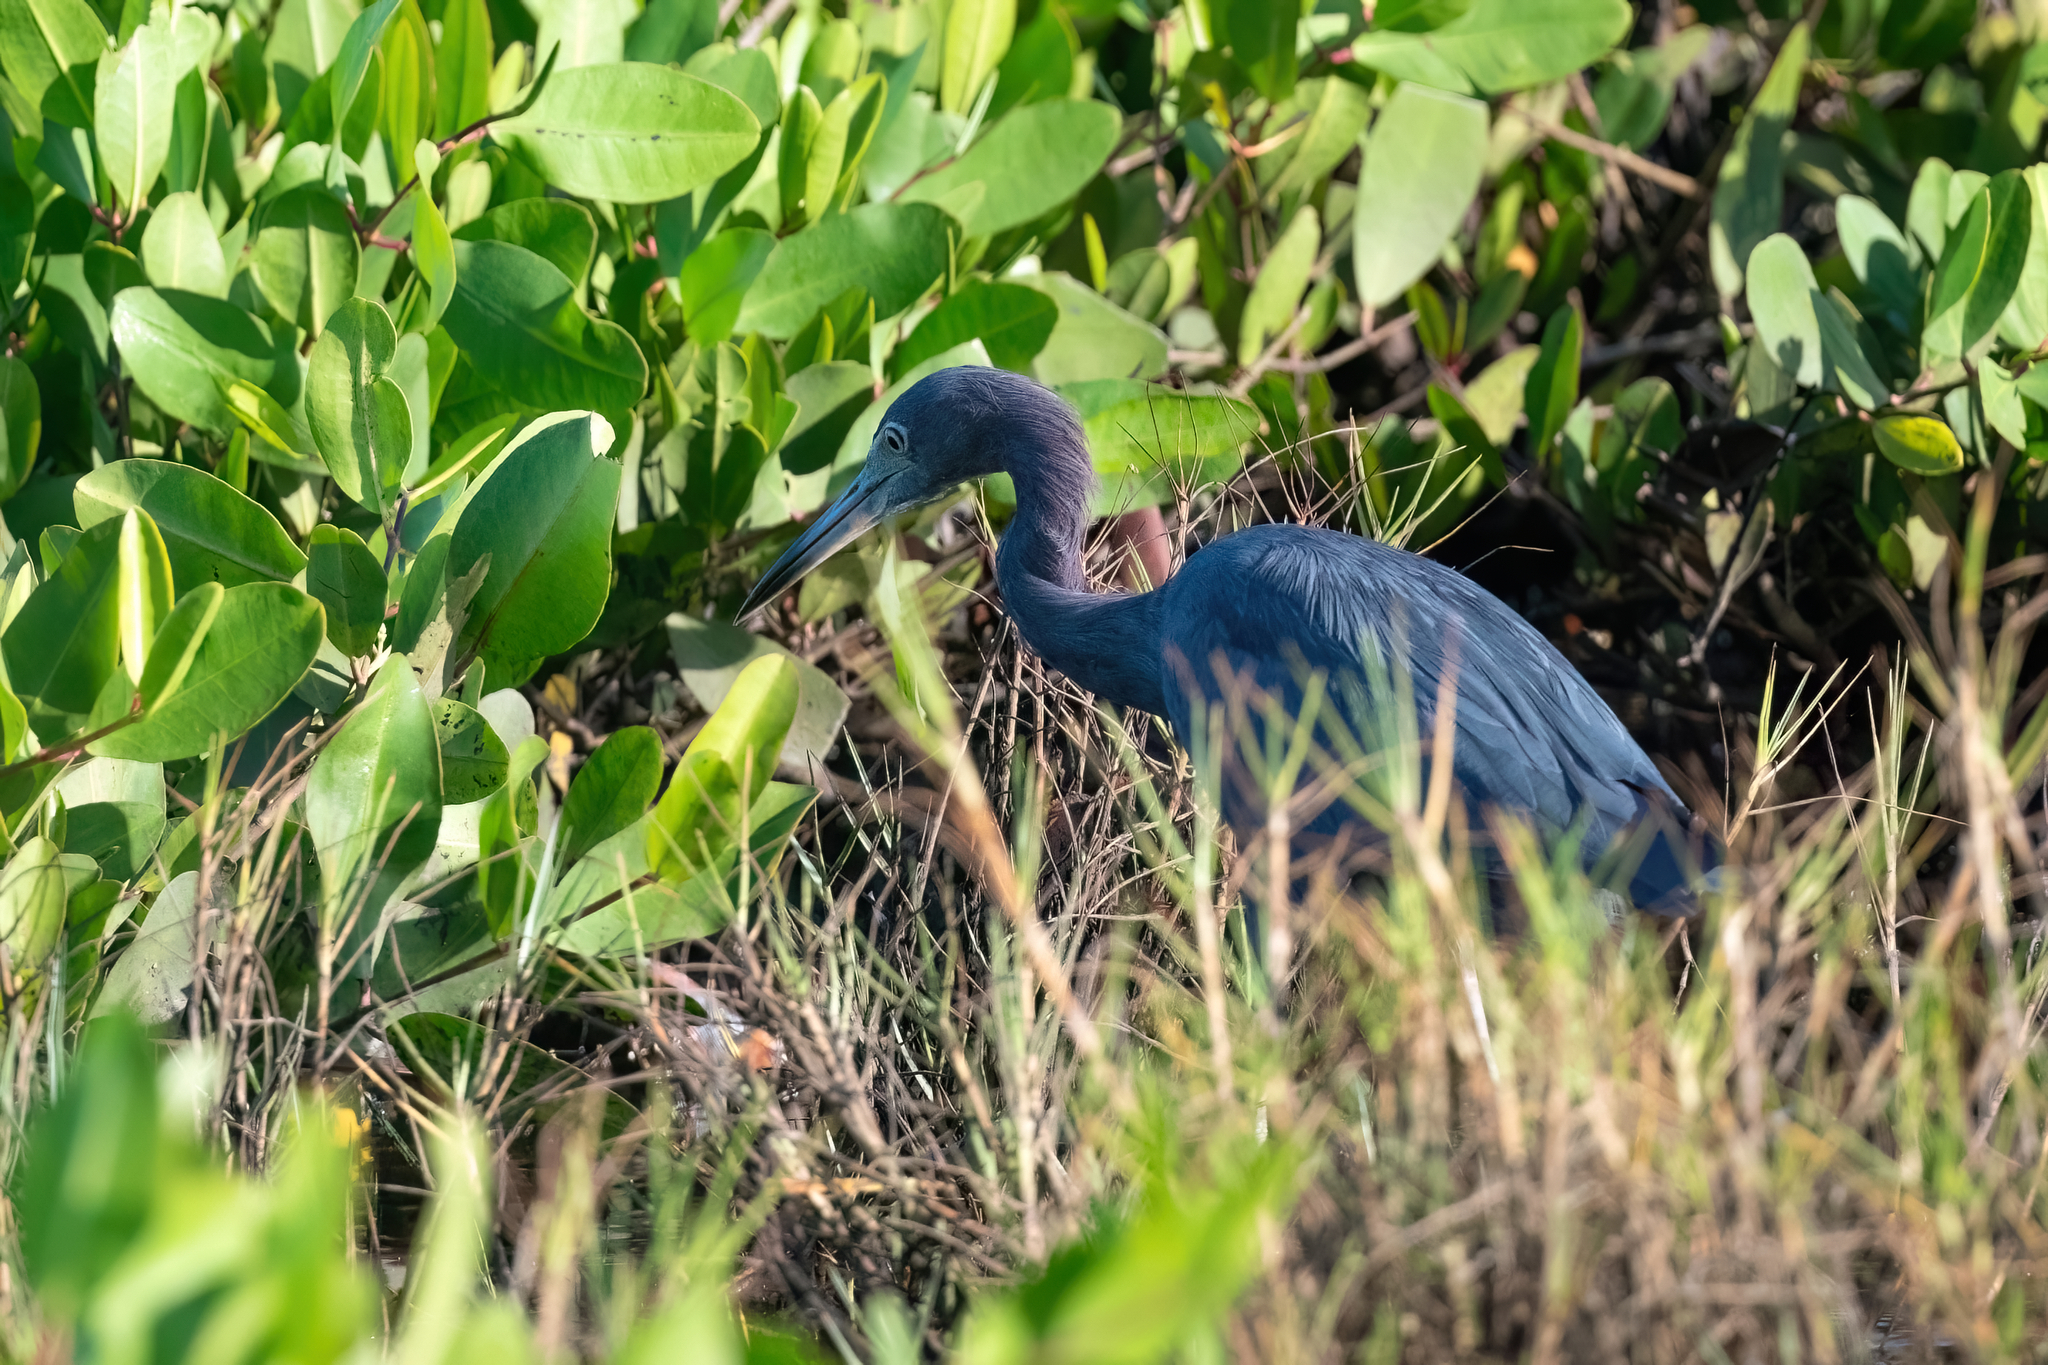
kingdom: Animalia
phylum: Chordata
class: Aves
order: Pelecaniformes
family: Ardeidae
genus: Egretta
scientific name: Egretta caerulea
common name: Little blue heron
